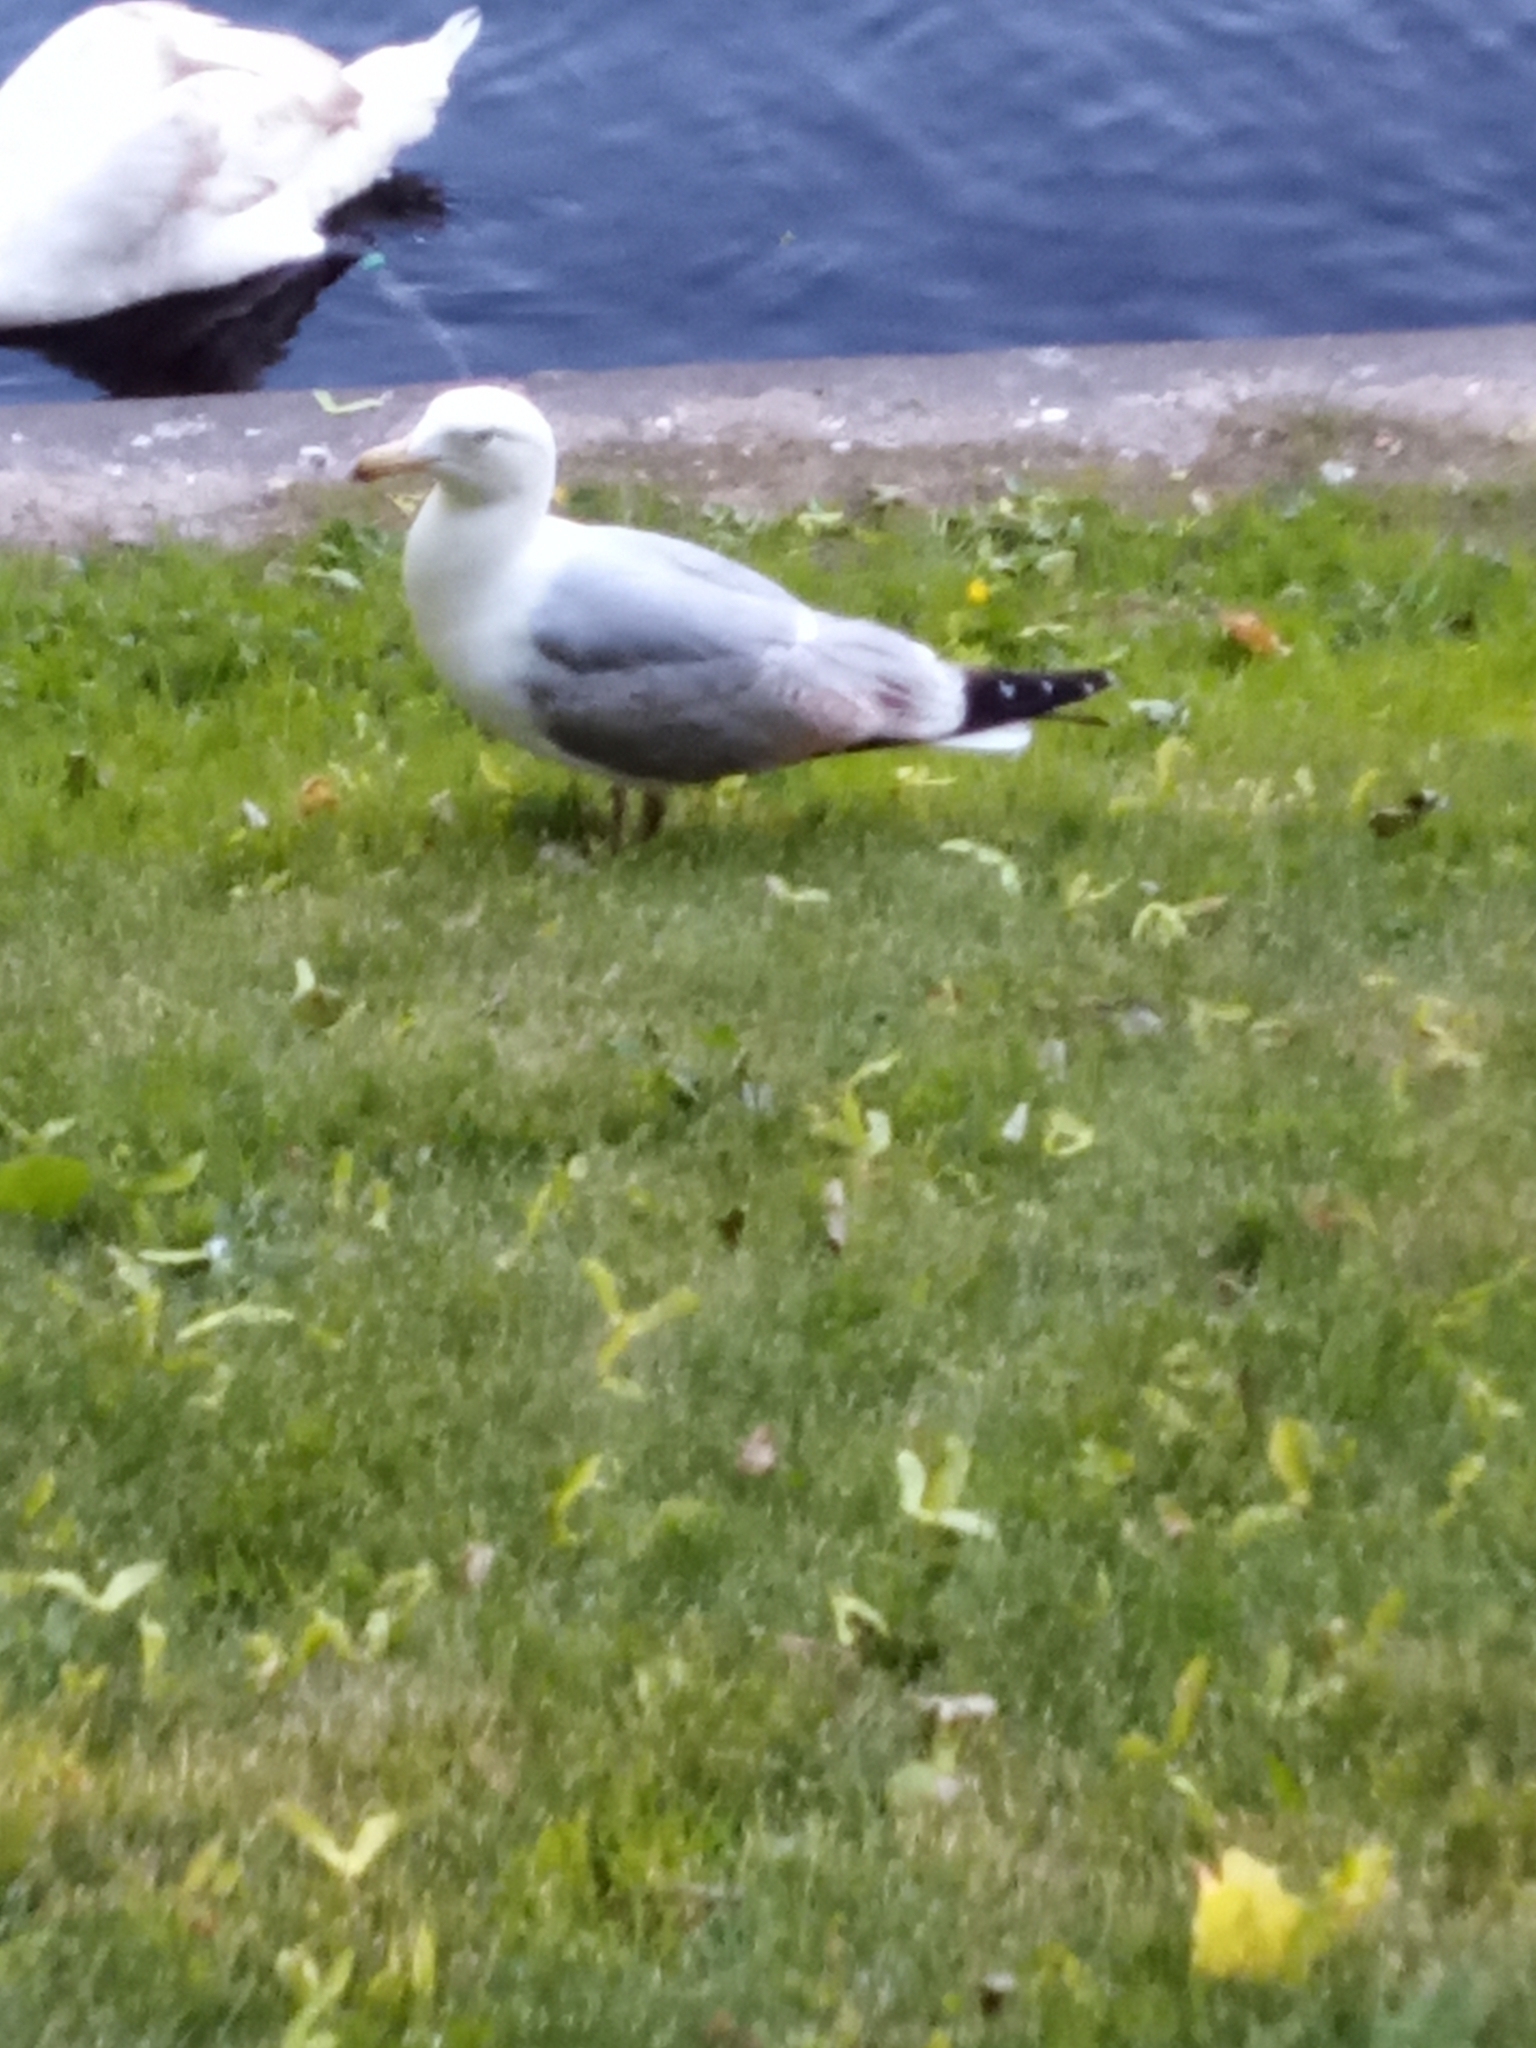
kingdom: Animalia
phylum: Chordata
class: Aves
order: Charadriiformes
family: Laridae
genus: Larus
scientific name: Larus argentatus
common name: Herring gull
